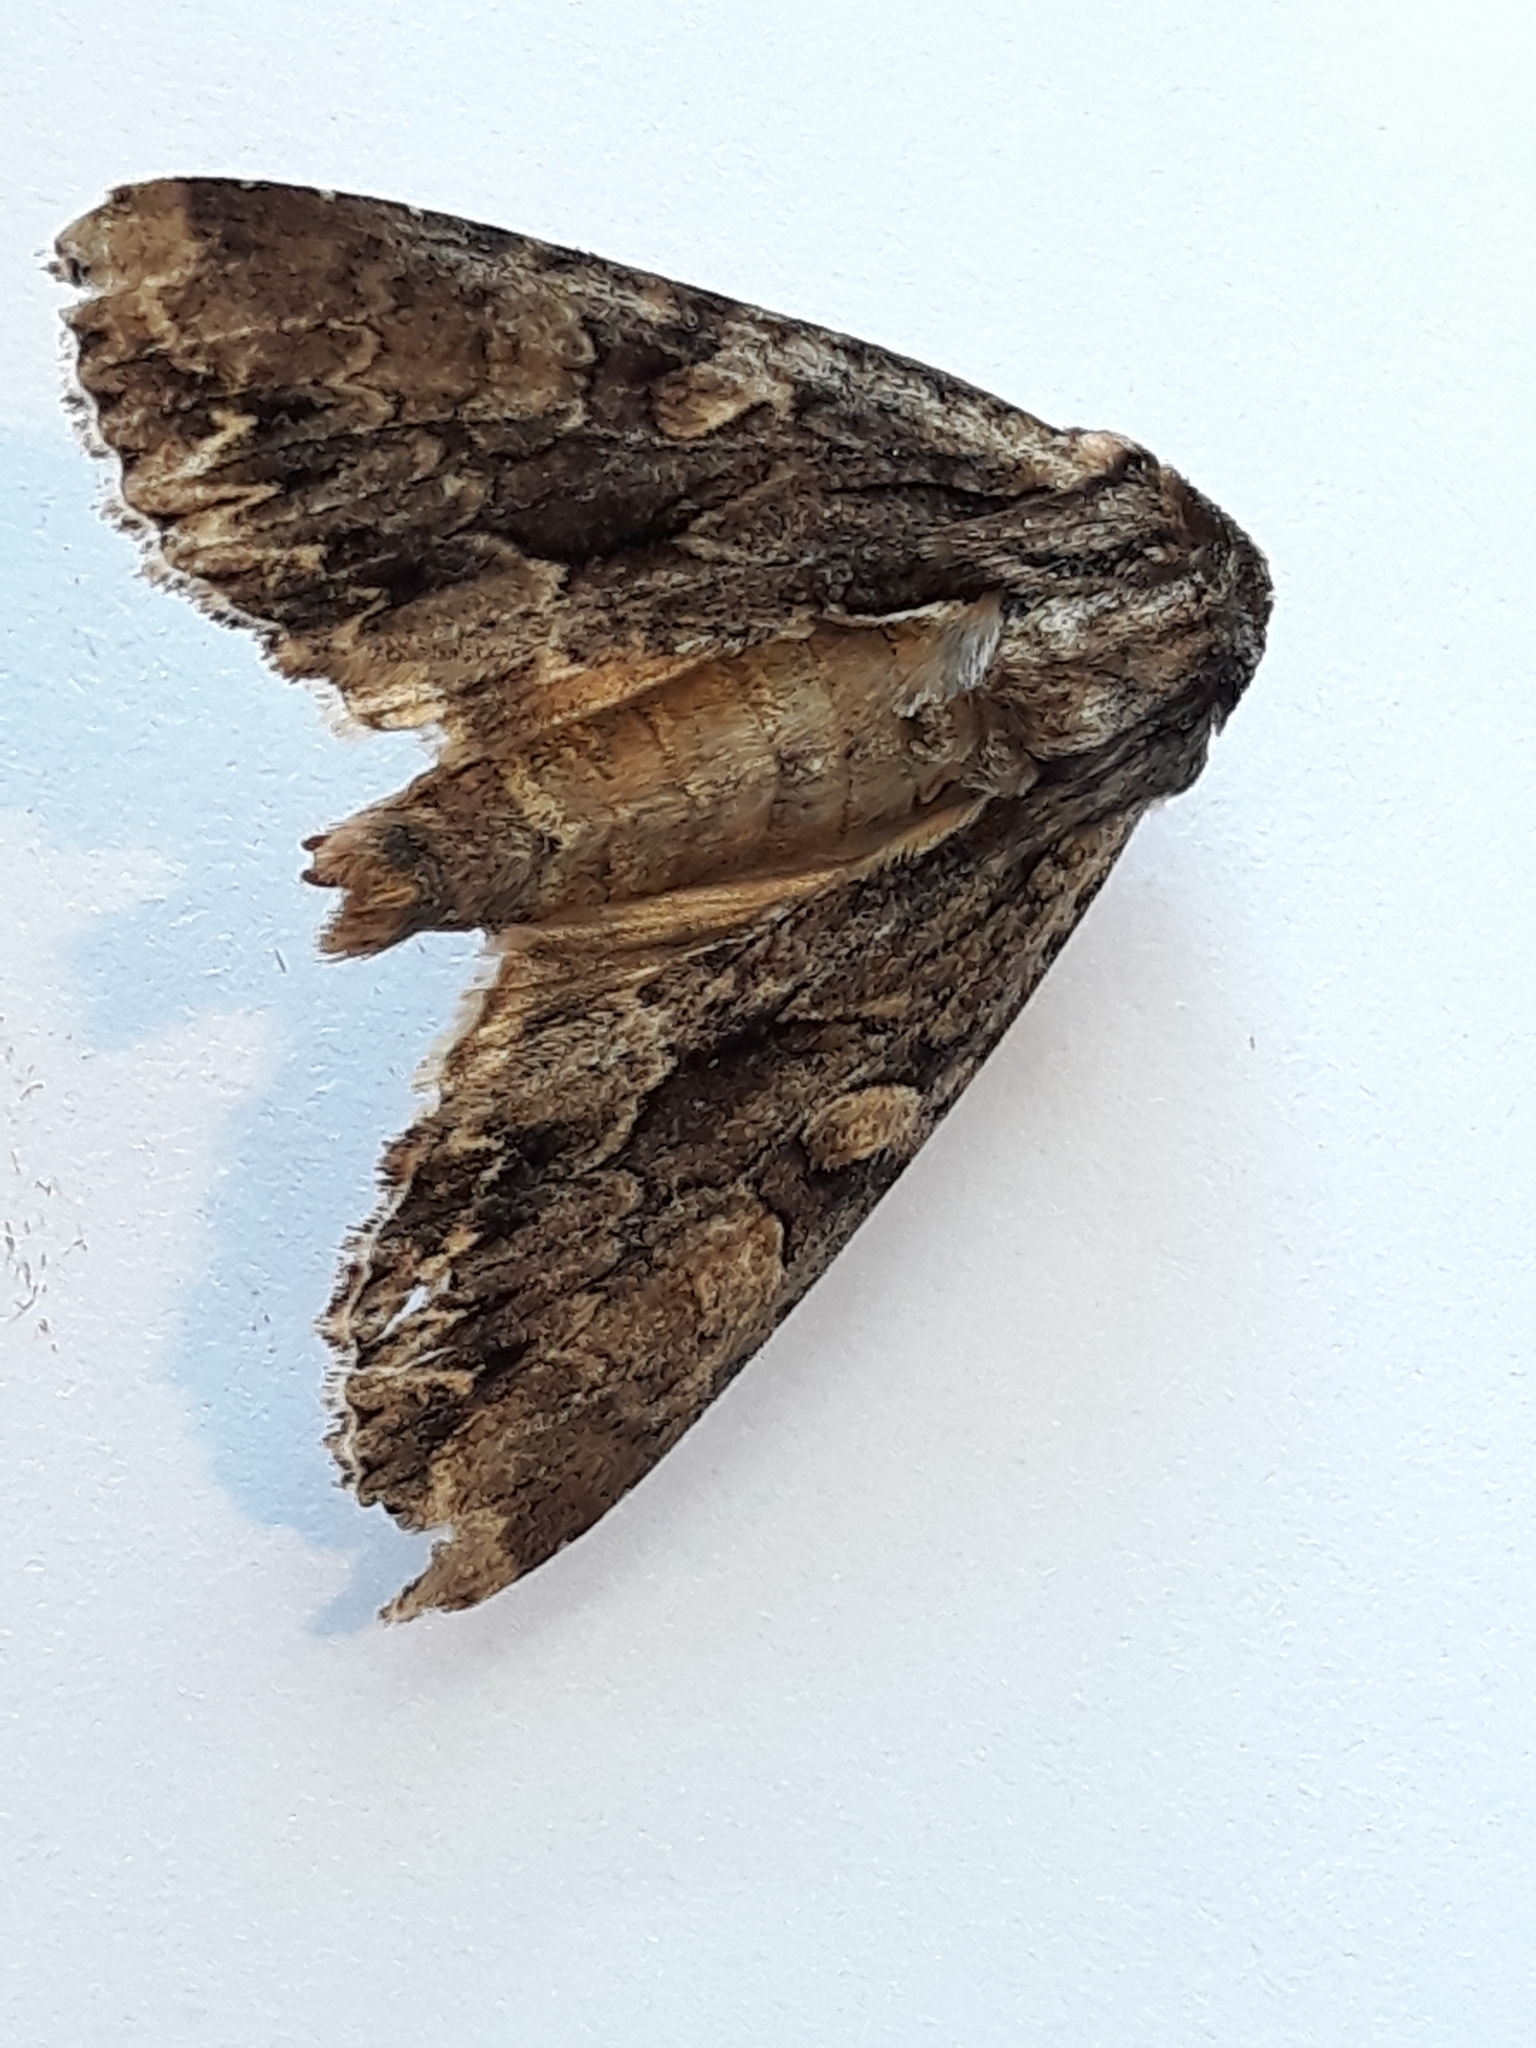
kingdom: Animalia
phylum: Arthropoda
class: Insecta
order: Lepidoptera
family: Noctuidae
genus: Apamea
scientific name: Apamea monoglypha
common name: Dark arches
